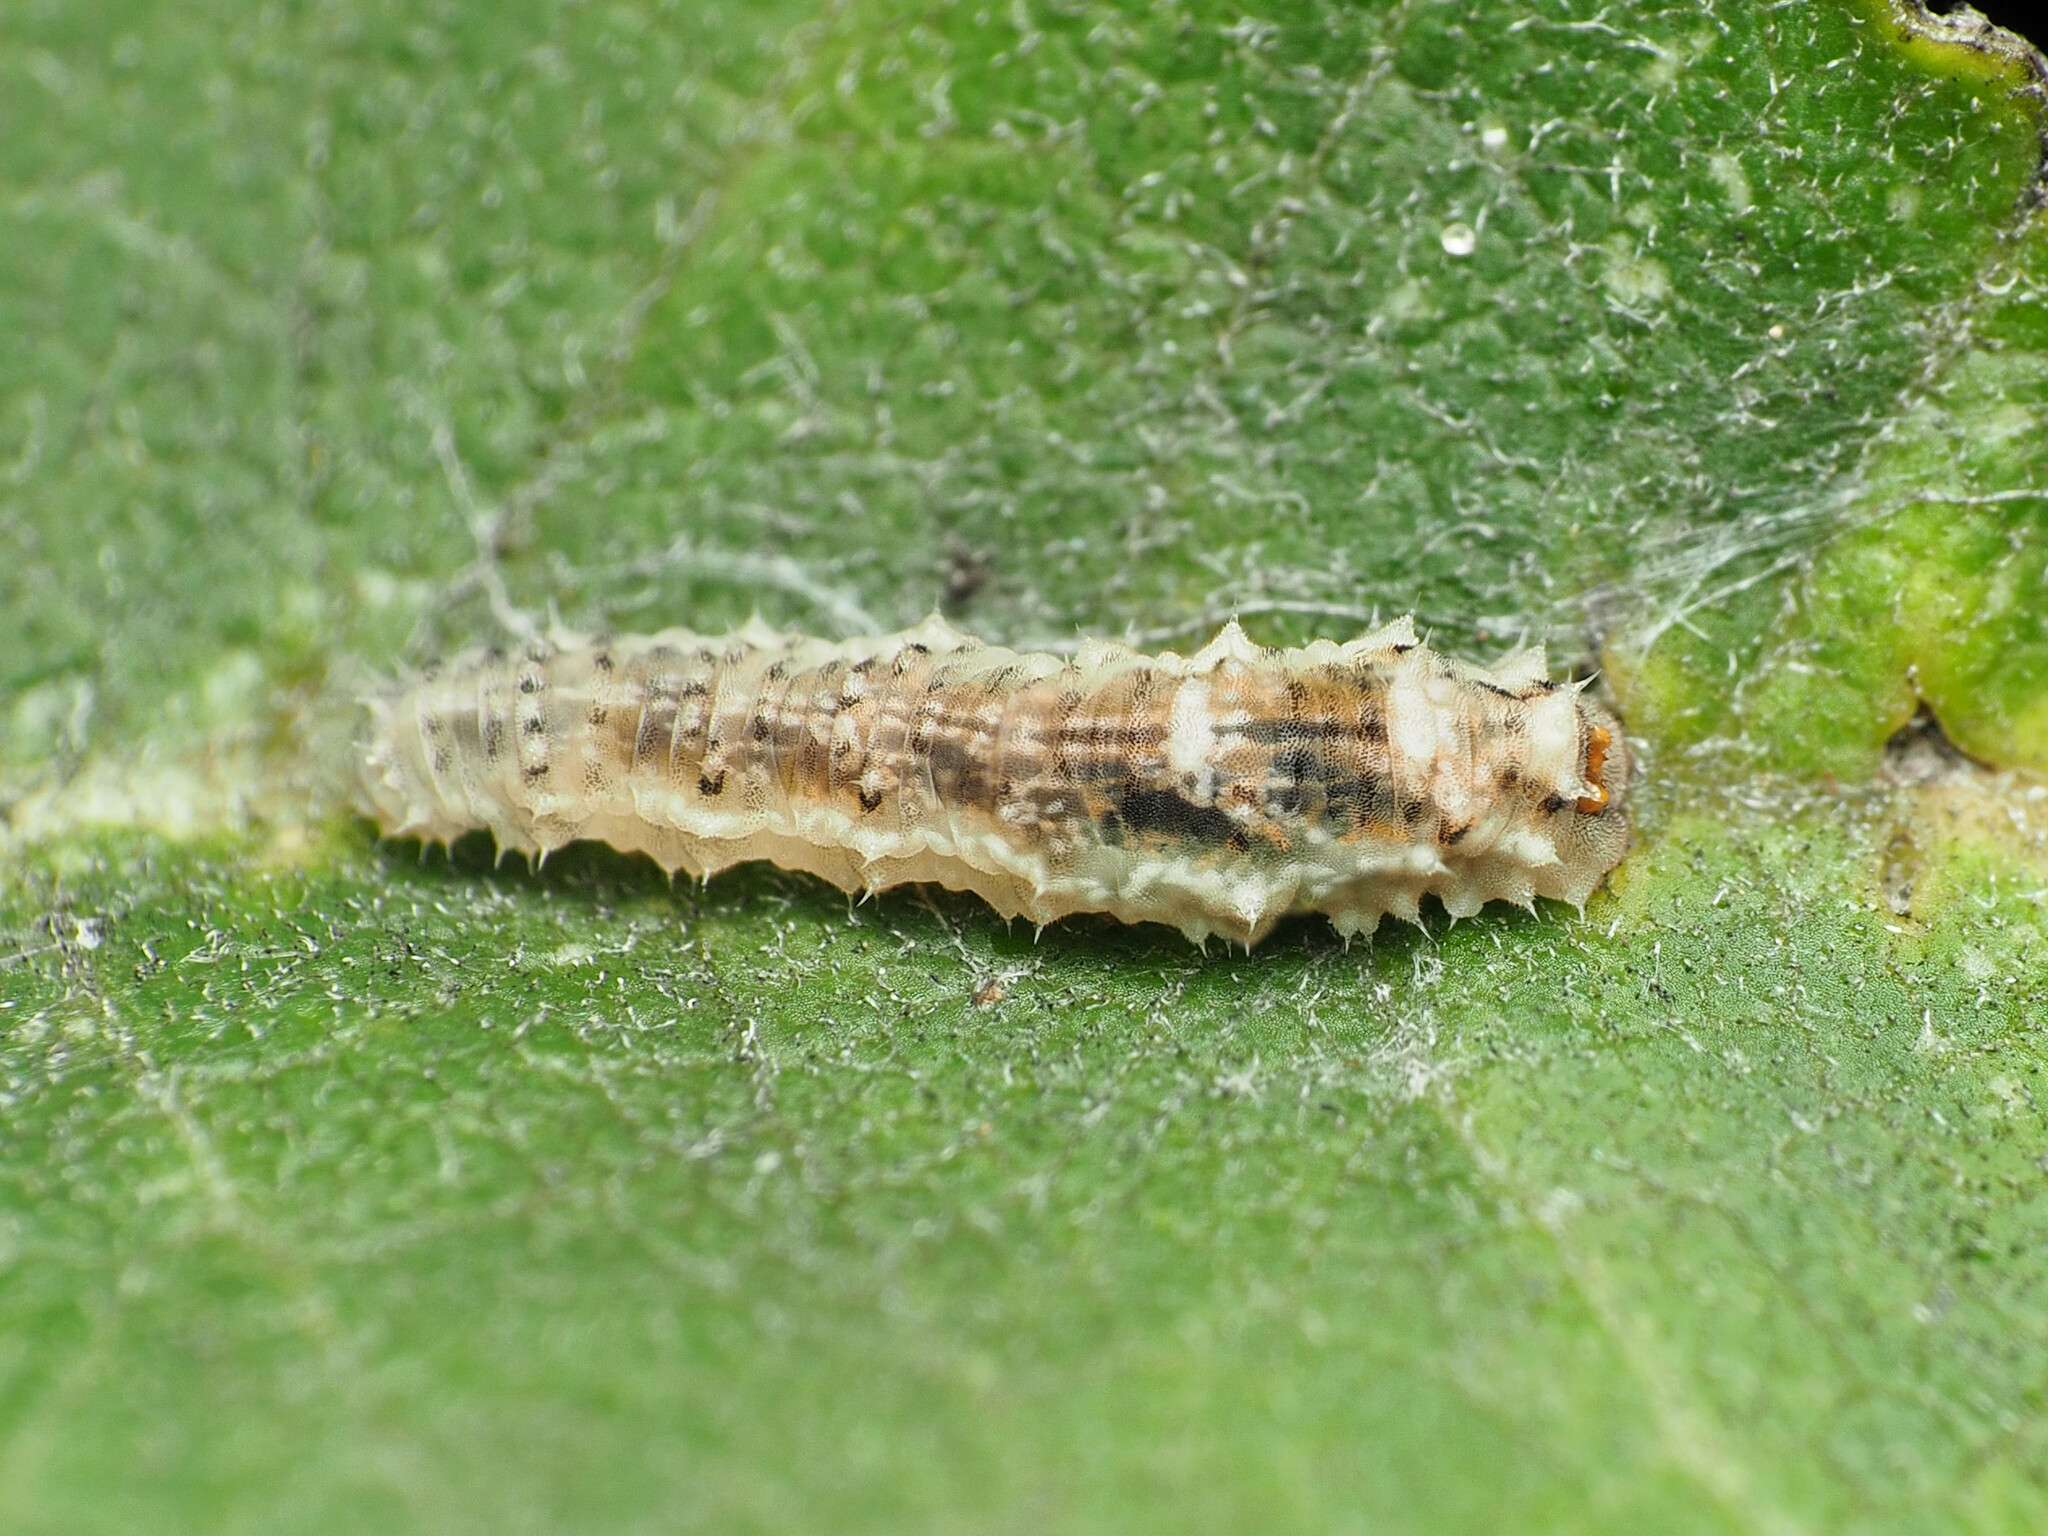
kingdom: Animalia
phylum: Arthropoda
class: Insecta
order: Diptera
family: Syrphidae
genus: Eupeodes
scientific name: Eupeodes americanus
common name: Long-tailed aphideater
